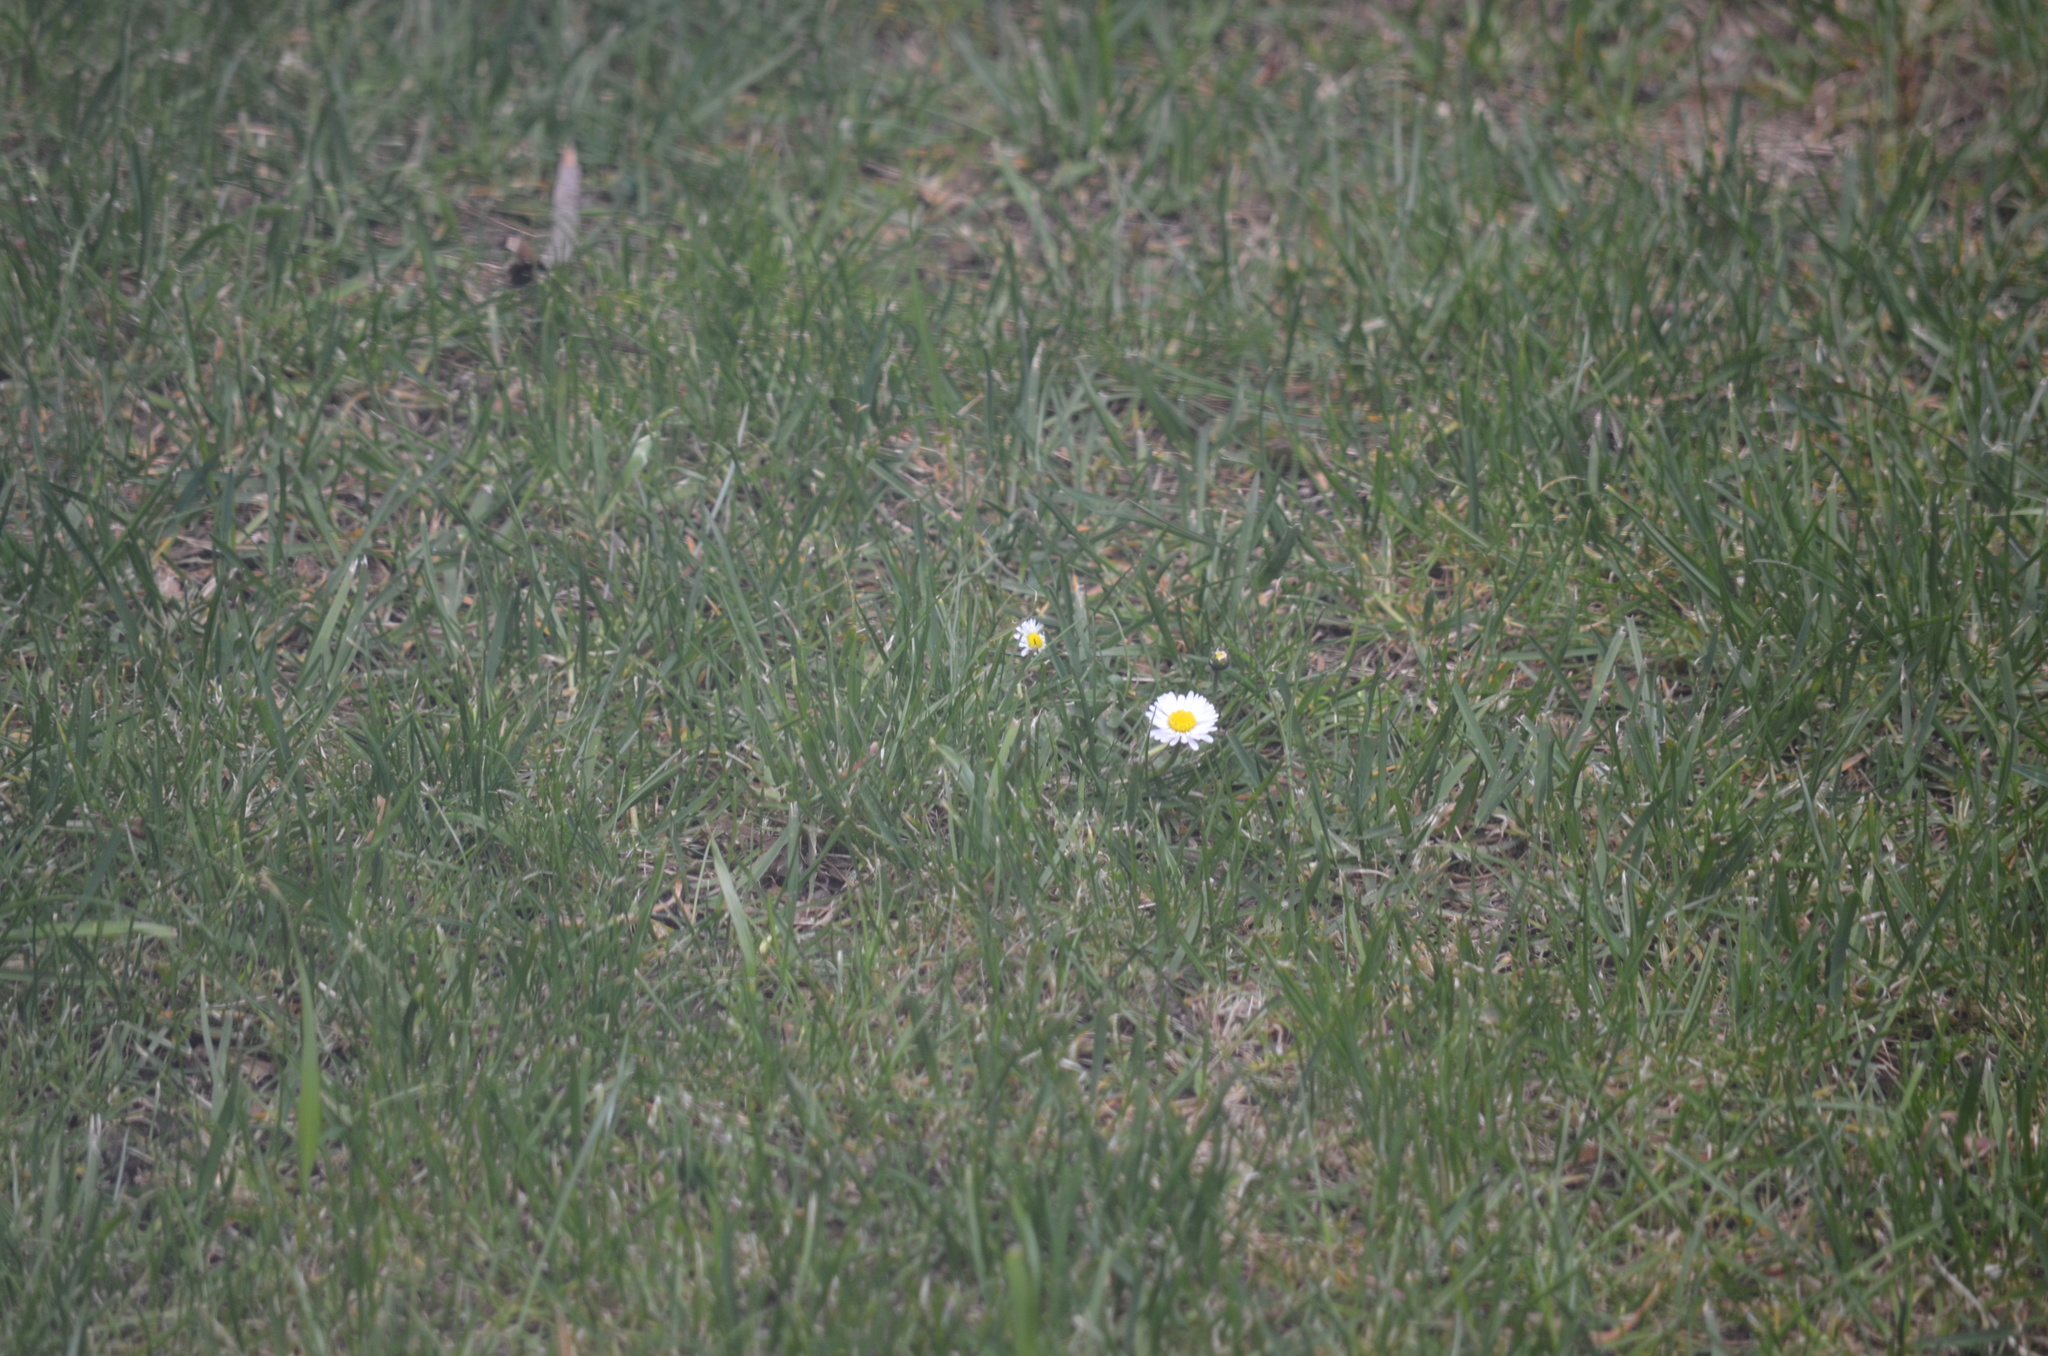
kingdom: Plantae
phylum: Tracheophyta
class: Magnoliopsida
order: Asterales
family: Asteraceae
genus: Bellis
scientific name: Bellis perennis
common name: Lawndaisy
